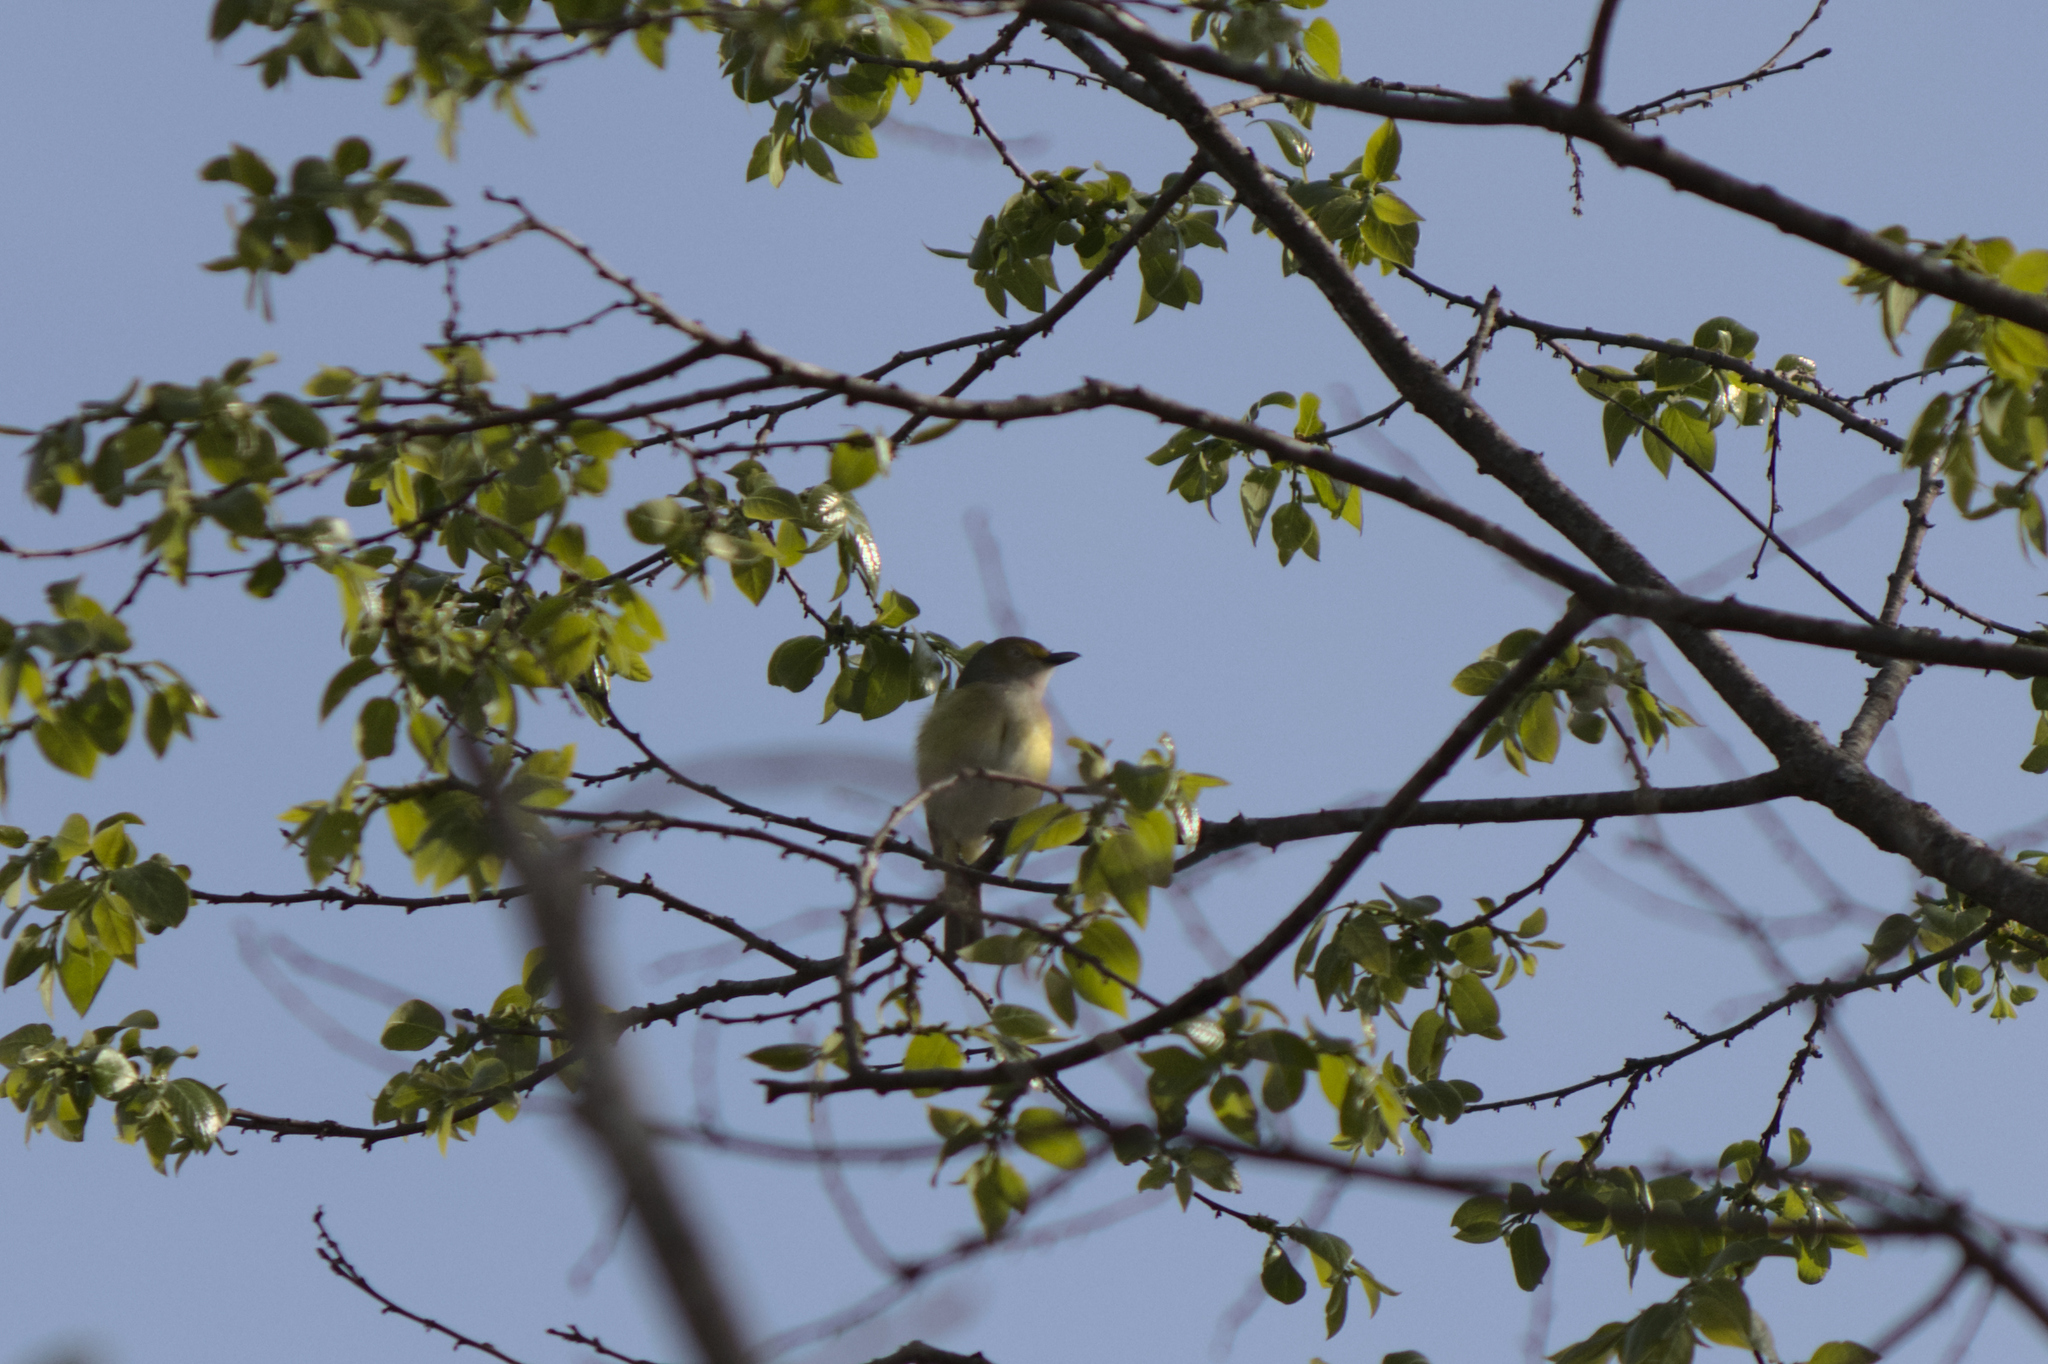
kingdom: Animalia
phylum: Chordata
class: Aves
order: Passeriformes
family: Vireonidae
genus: Vireo
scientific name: Vireo griseus
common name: White-eyed vireo
